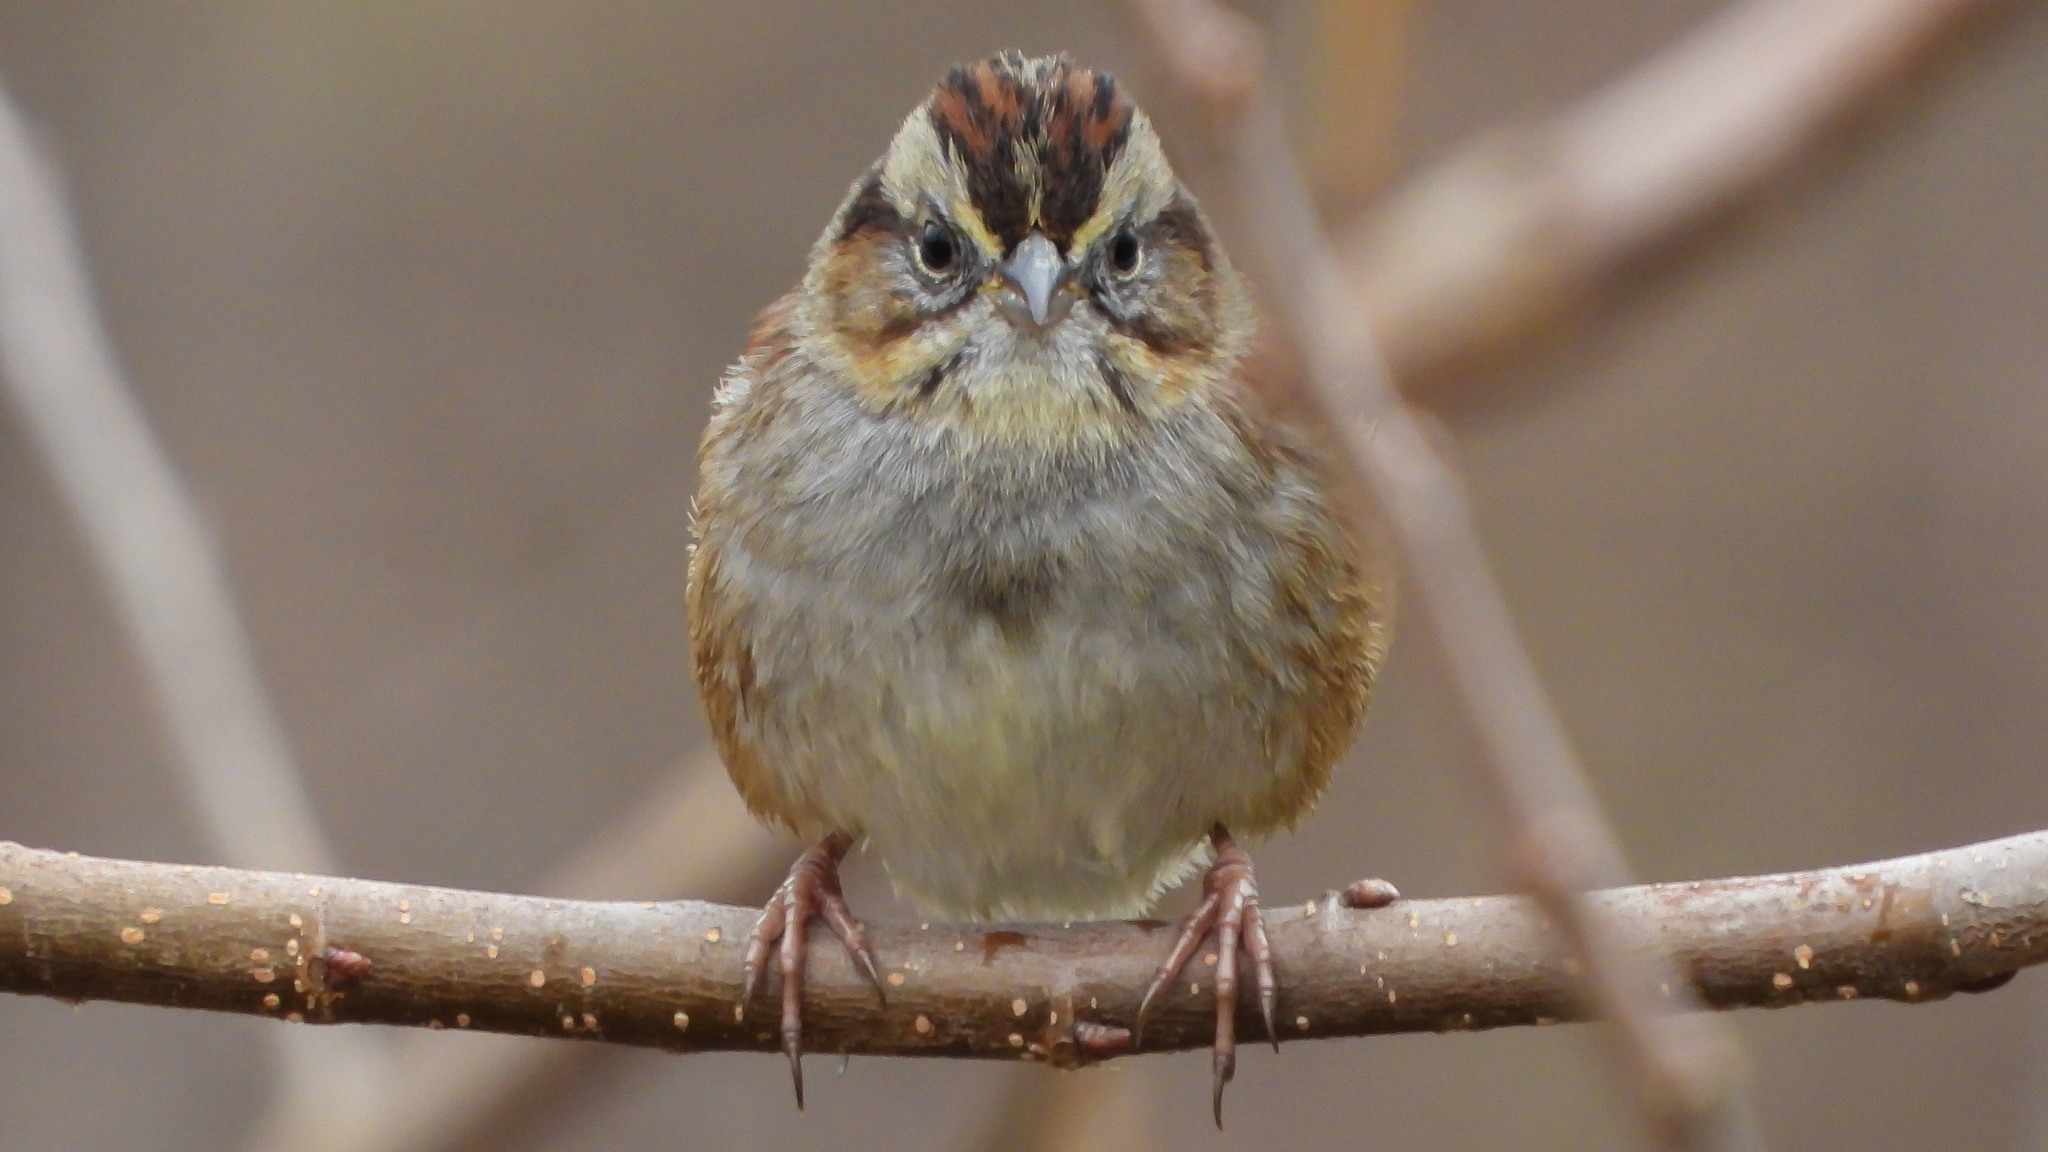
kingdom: Animalia
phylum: Chordata
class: Aves
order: Passeriformes
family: Passerellidae
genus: Melospiza
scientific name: Melospiza georgiana
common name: Swamp sparrow
